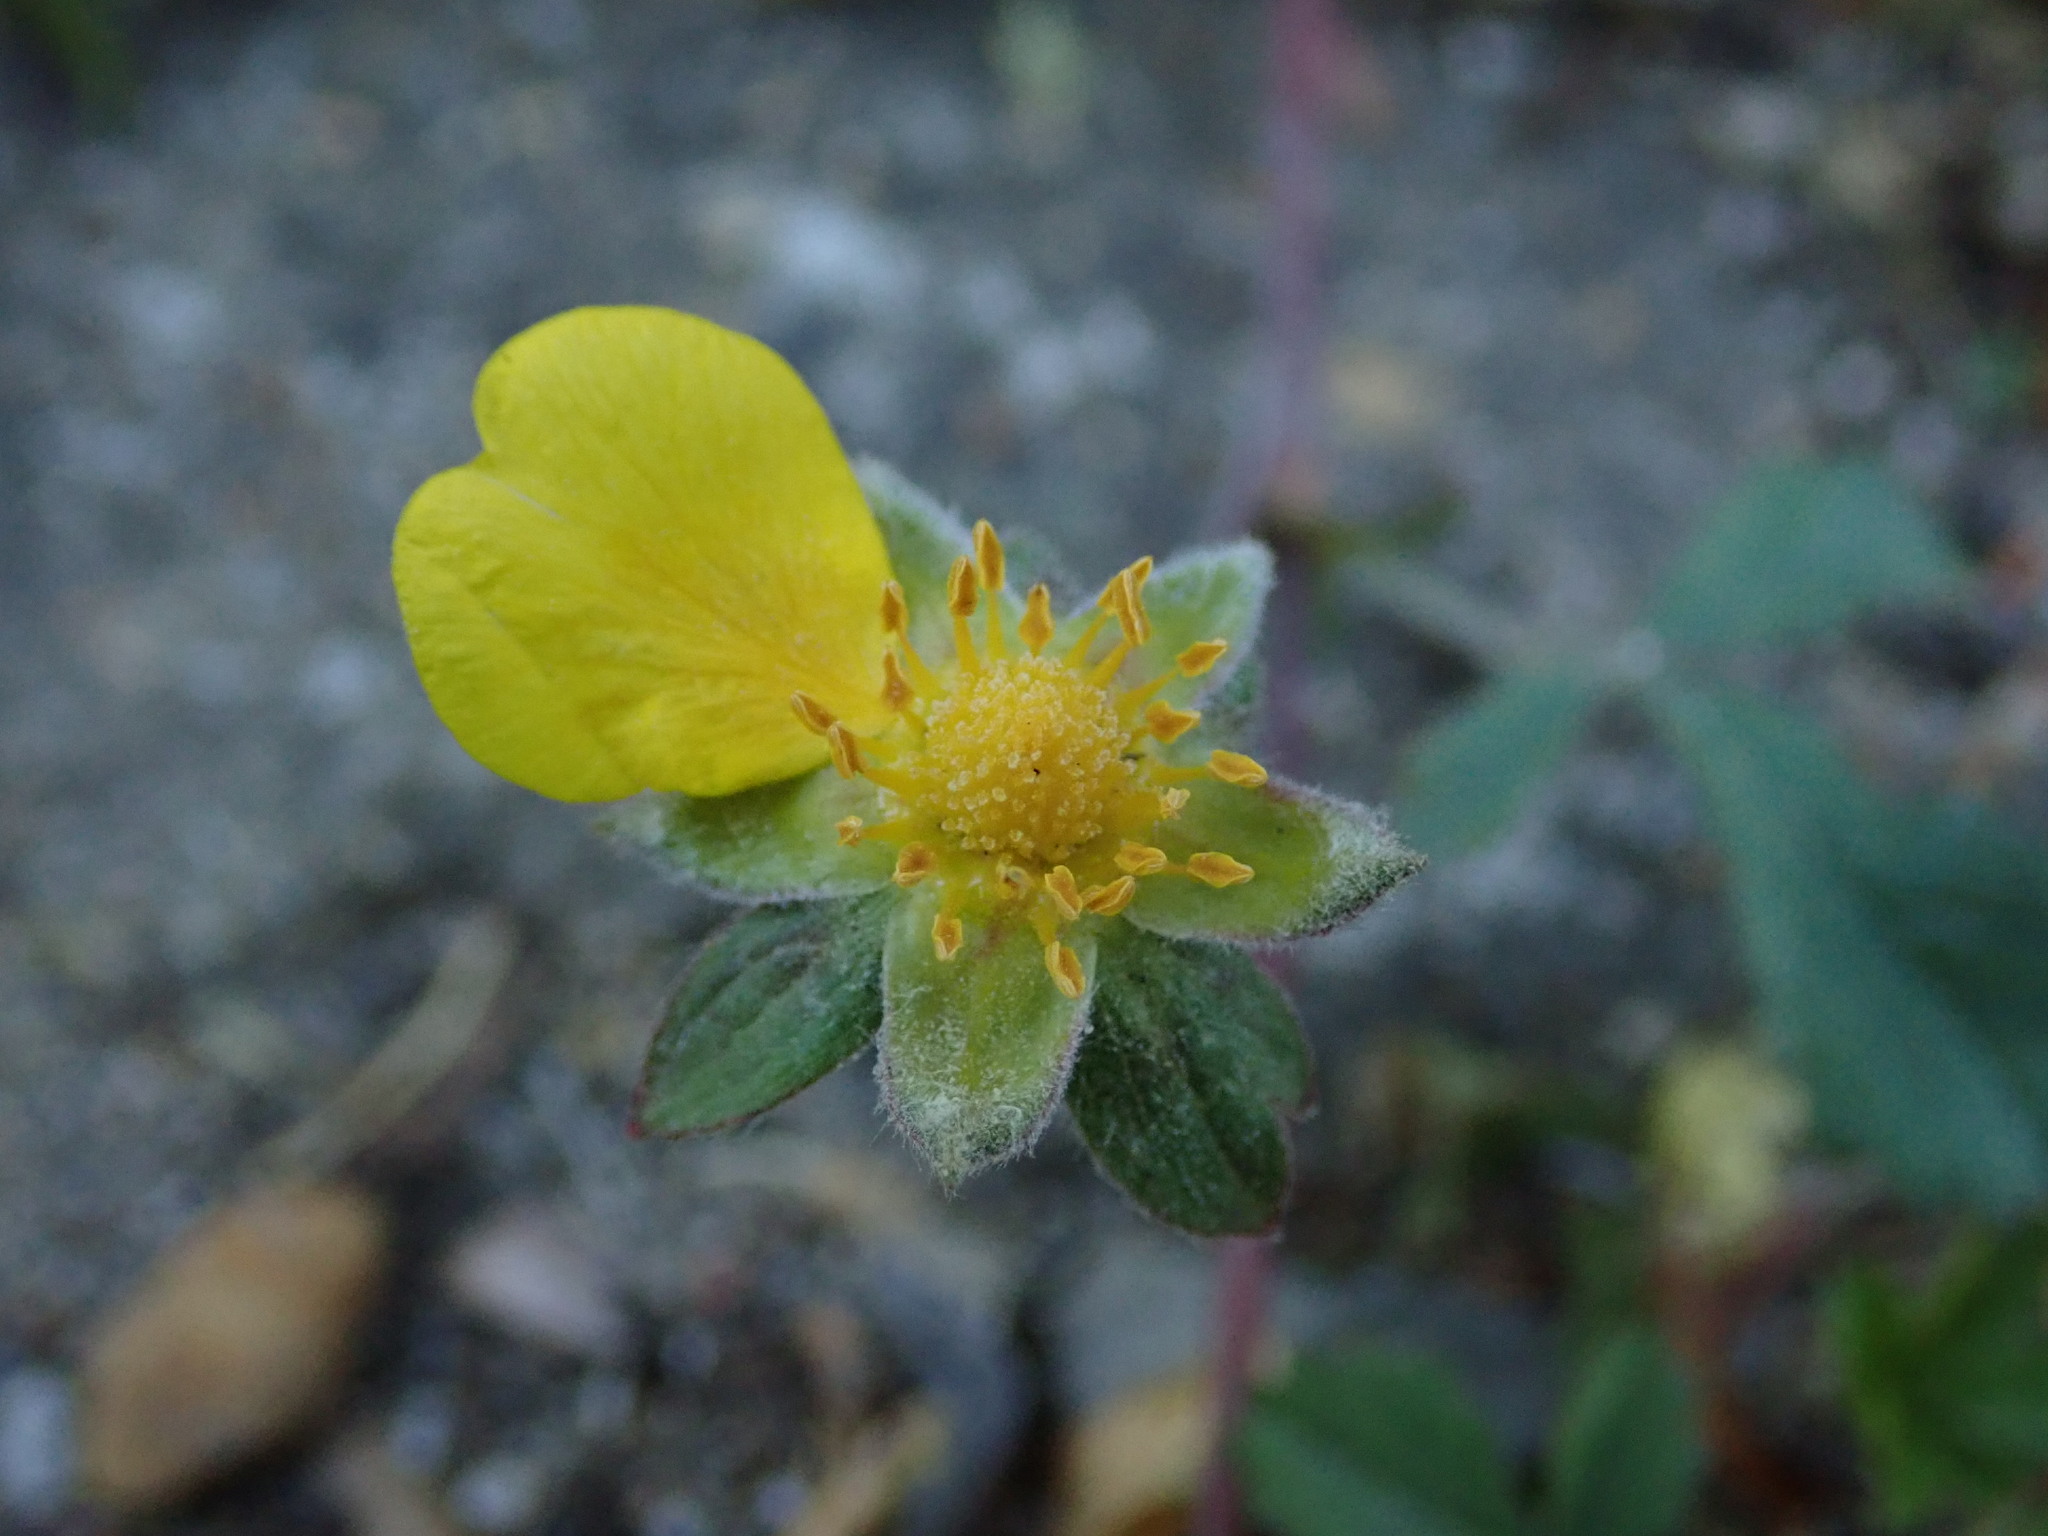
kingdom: Plantae
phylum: Tracheophyta
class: Magnoliopsida
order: Rosales
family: Rosaceae
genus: Potentilla
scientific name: Potentilla reptans
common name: Creeping cinquefoil
